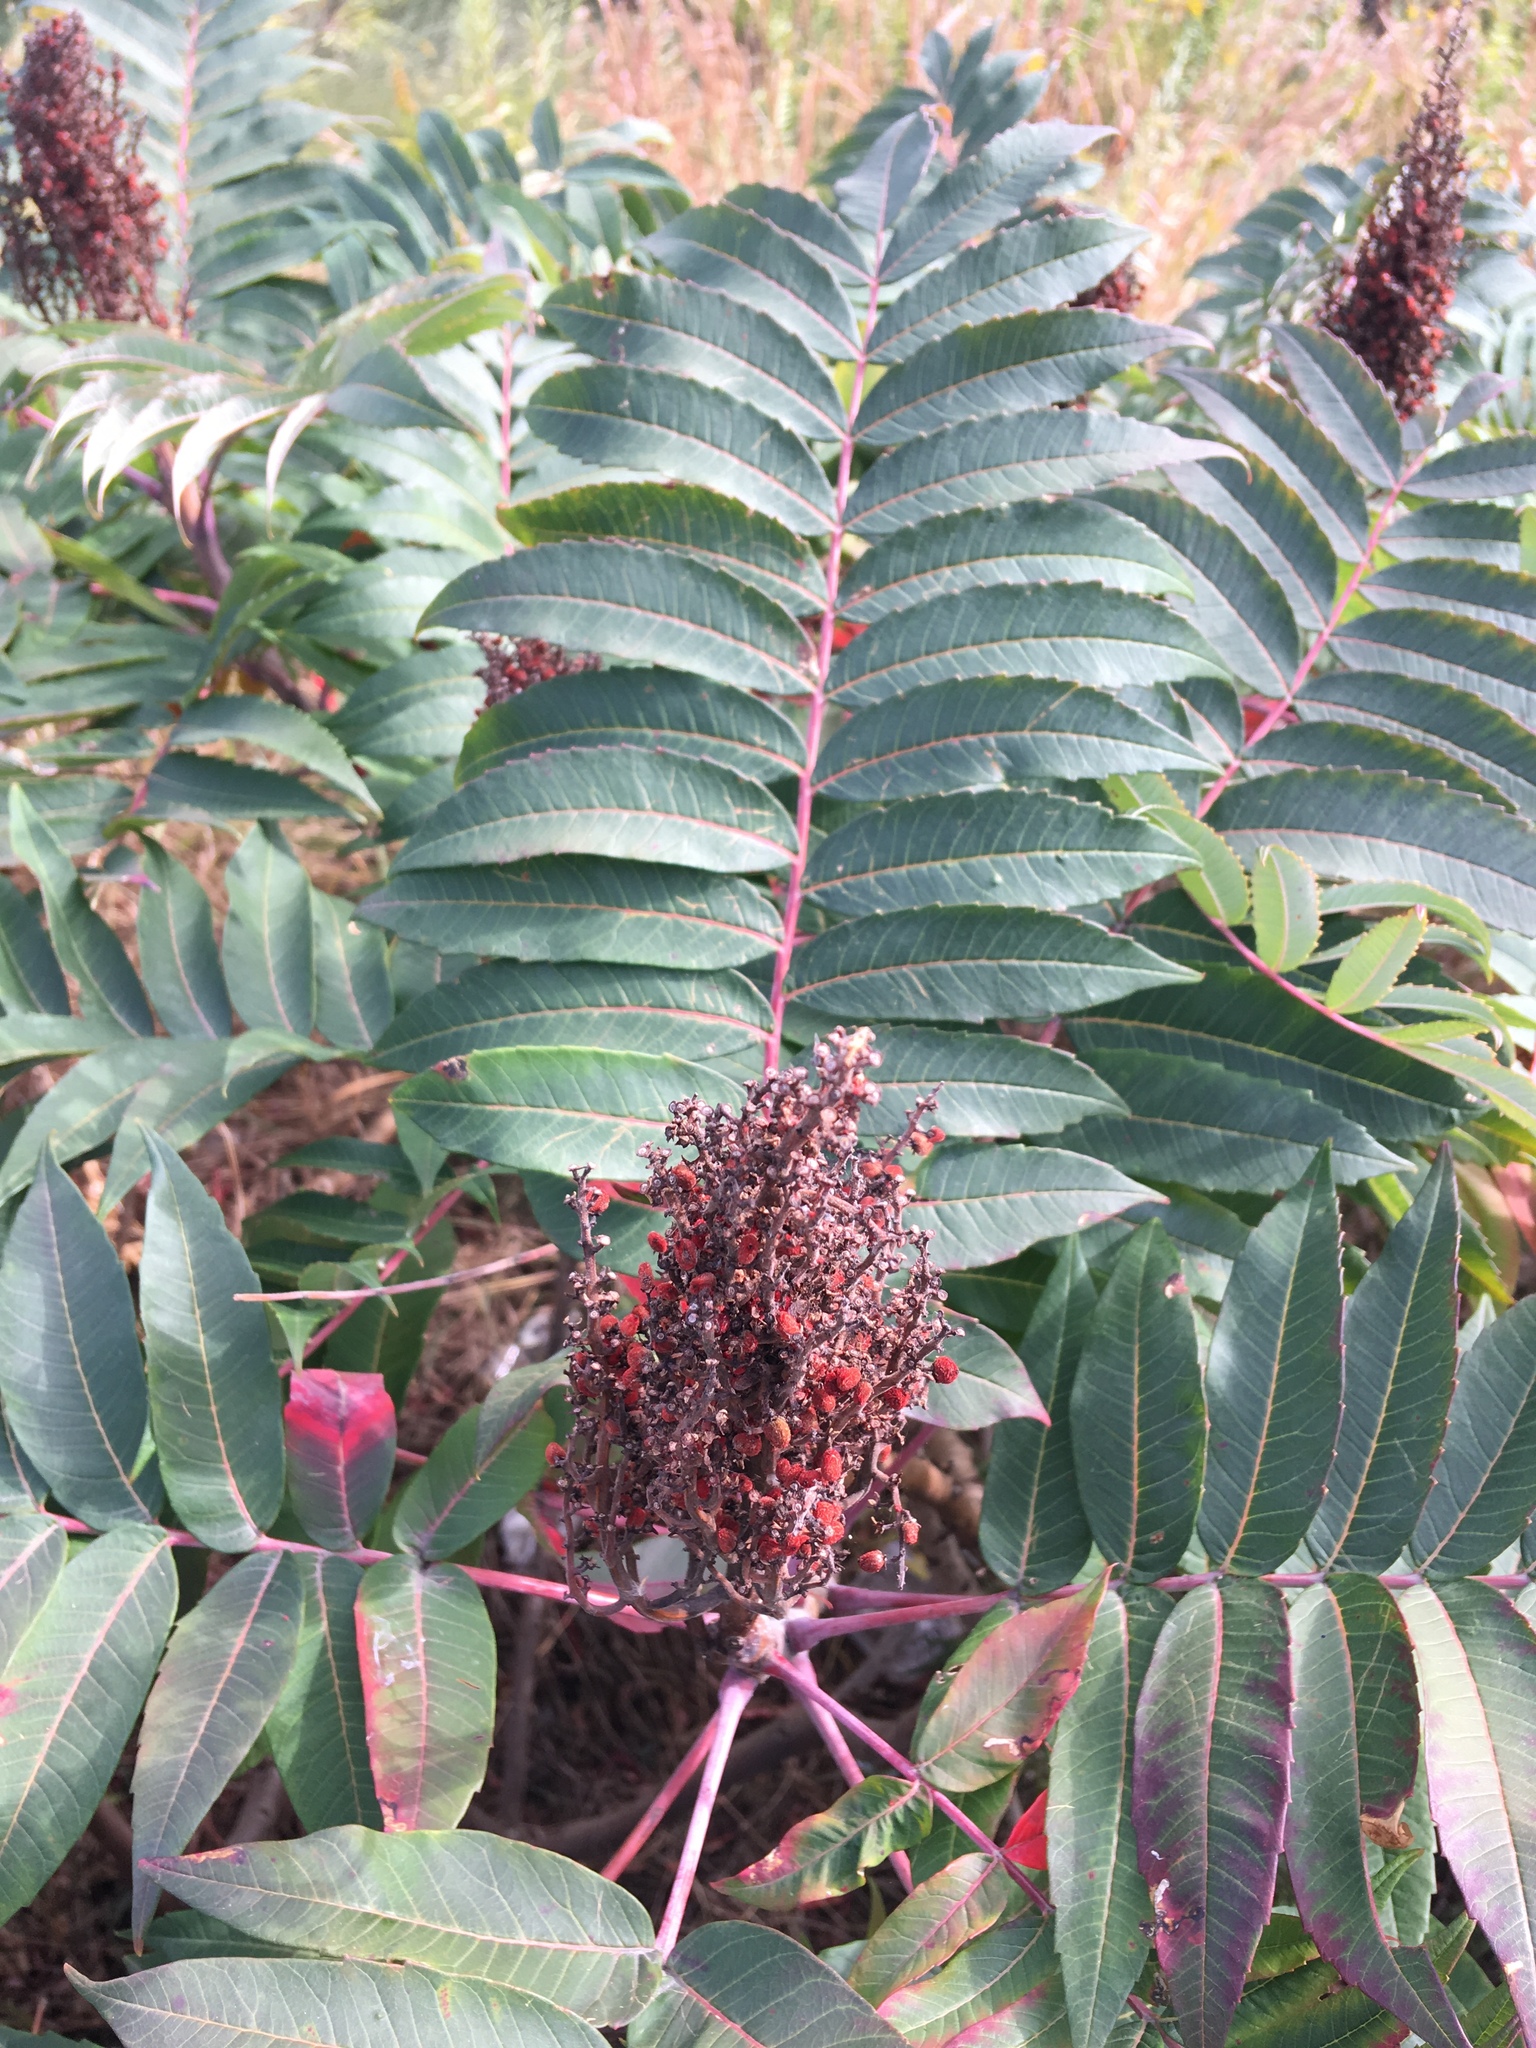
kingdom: Plantae
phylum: Tracheophyta
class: Magnoliopsida
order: Sapindales
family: Anacardiaceae
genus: Rhus
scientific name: Rhus glabra
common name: Scarlet sumac
